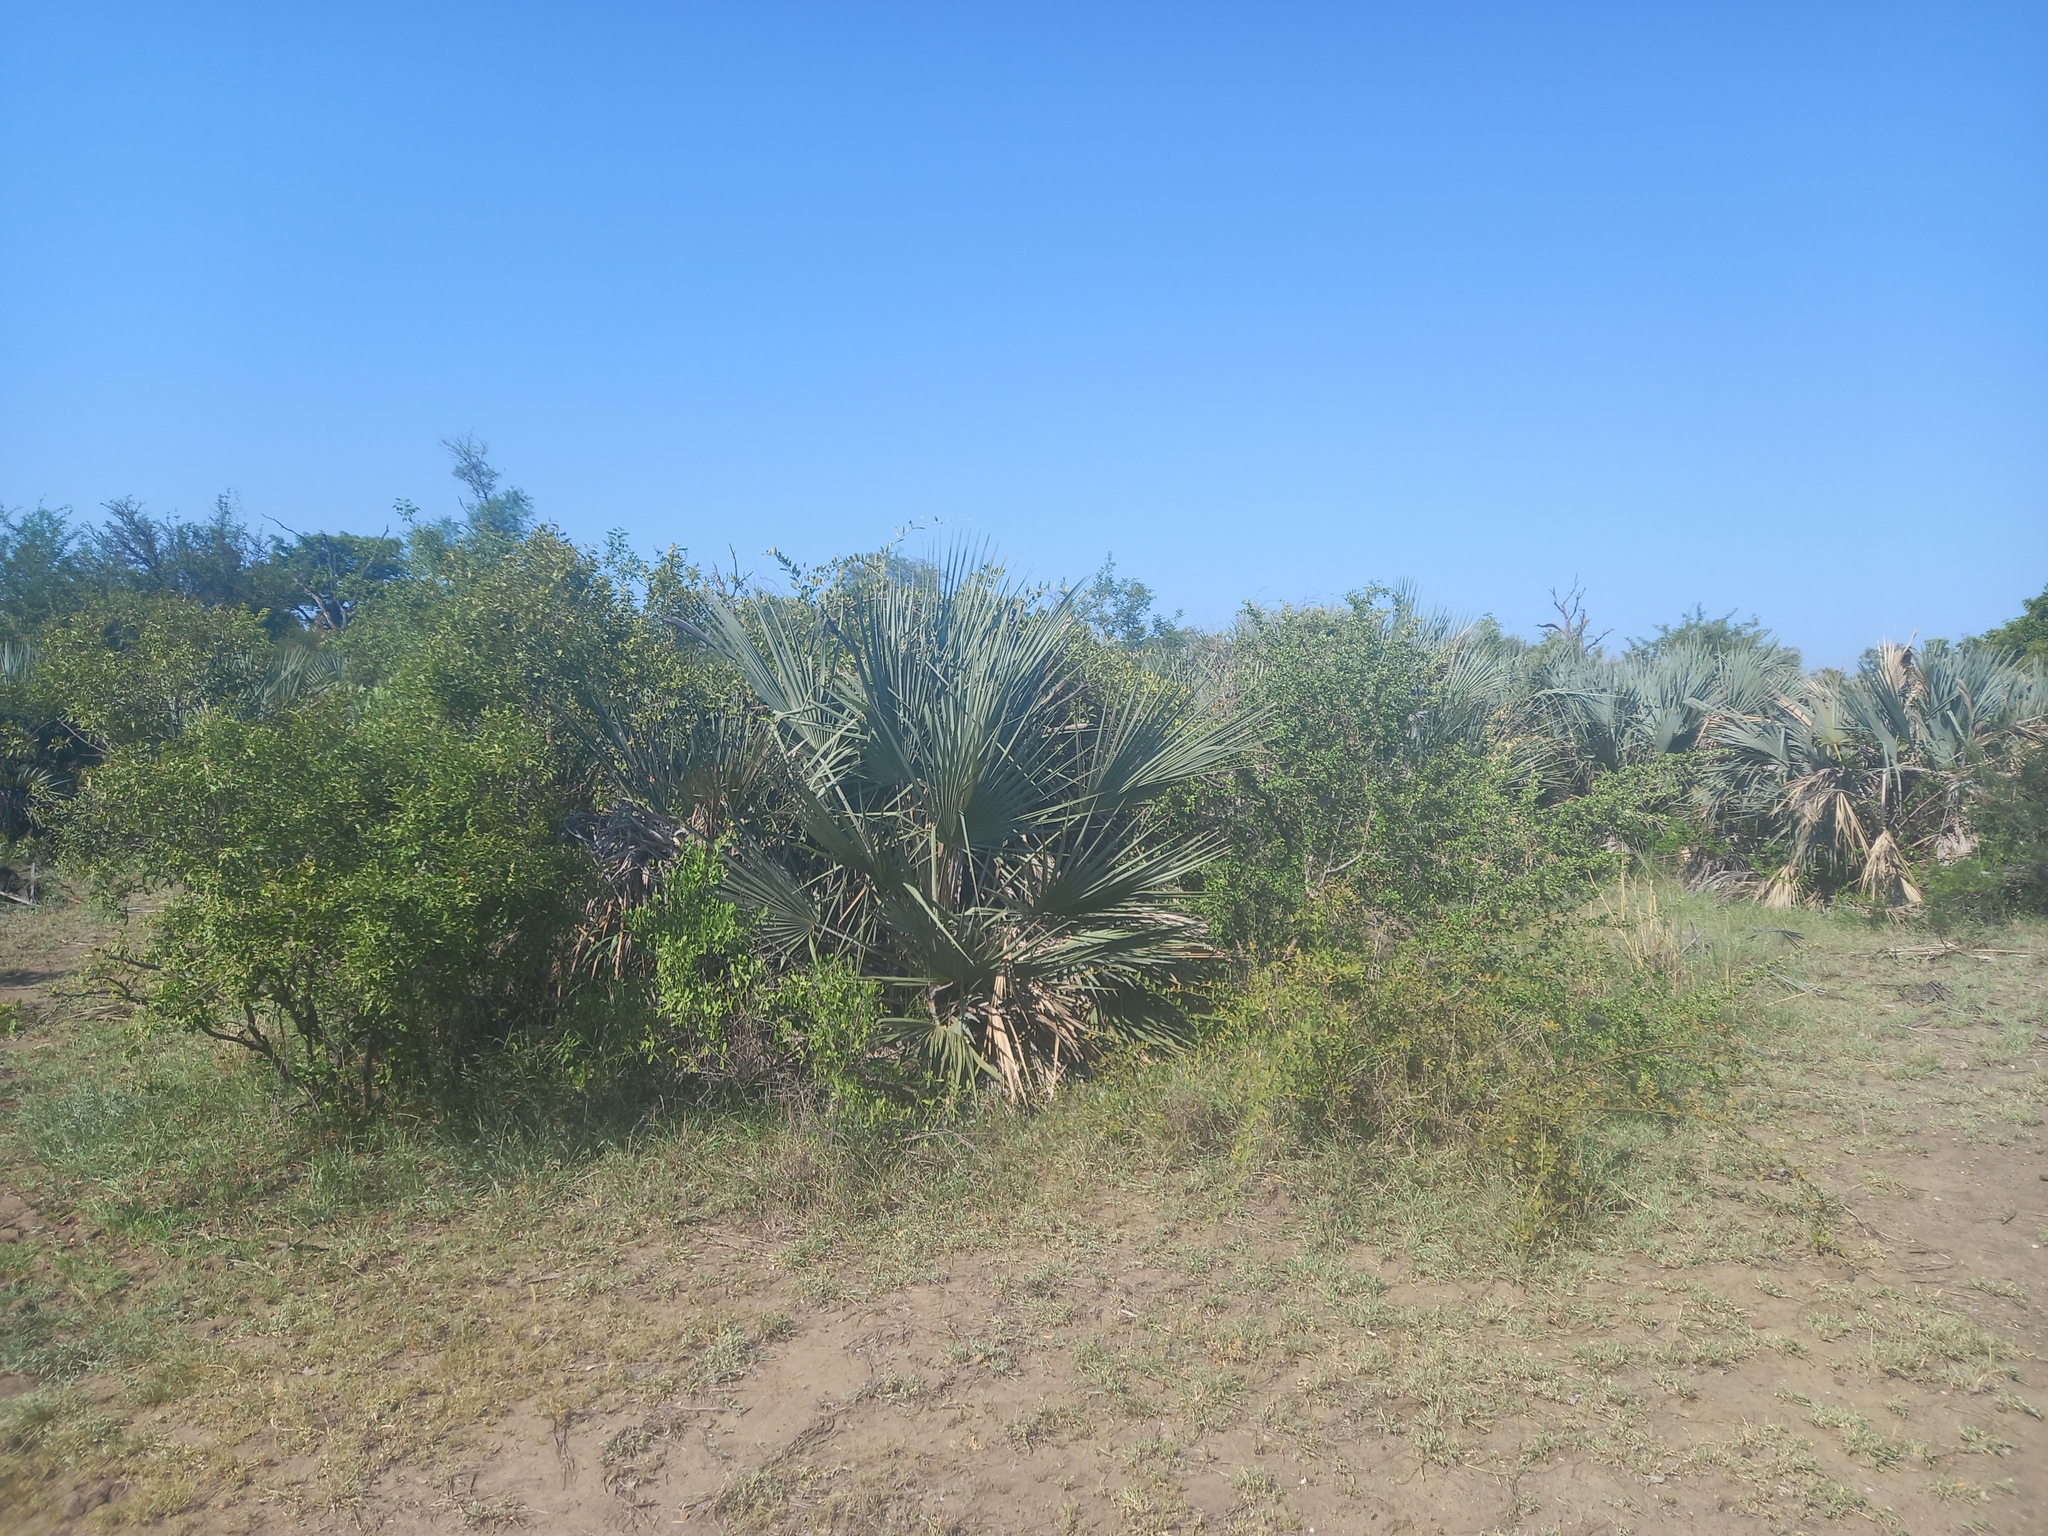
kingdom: Plantae
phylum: Tracheophyta
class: Liliopsida
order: Arecales
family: Arecaceae
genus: Hyphaene
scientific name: Hyphaene petersiana
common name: African ivory nut palm
